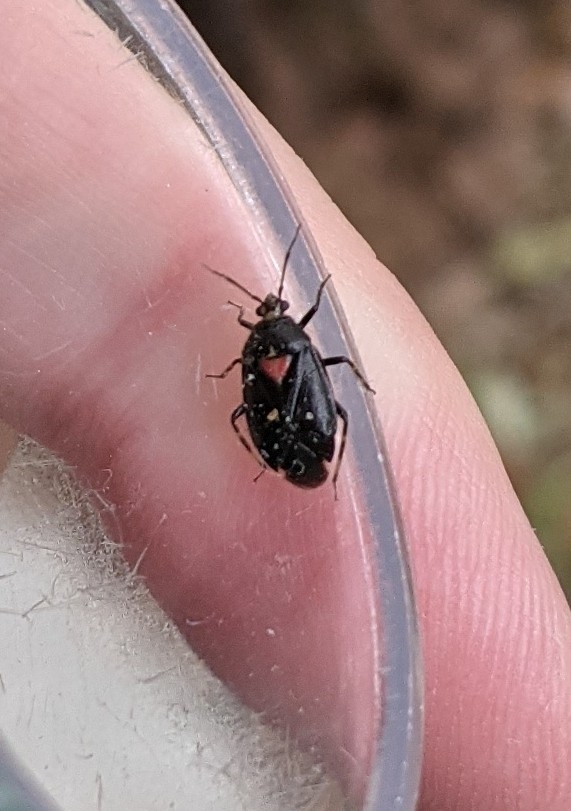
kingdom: Animalia
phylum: Arthropoda
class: Insecta
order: Hemiptera
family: Miridae
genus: Deraeocoris
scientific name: Deraeocoris sayi
